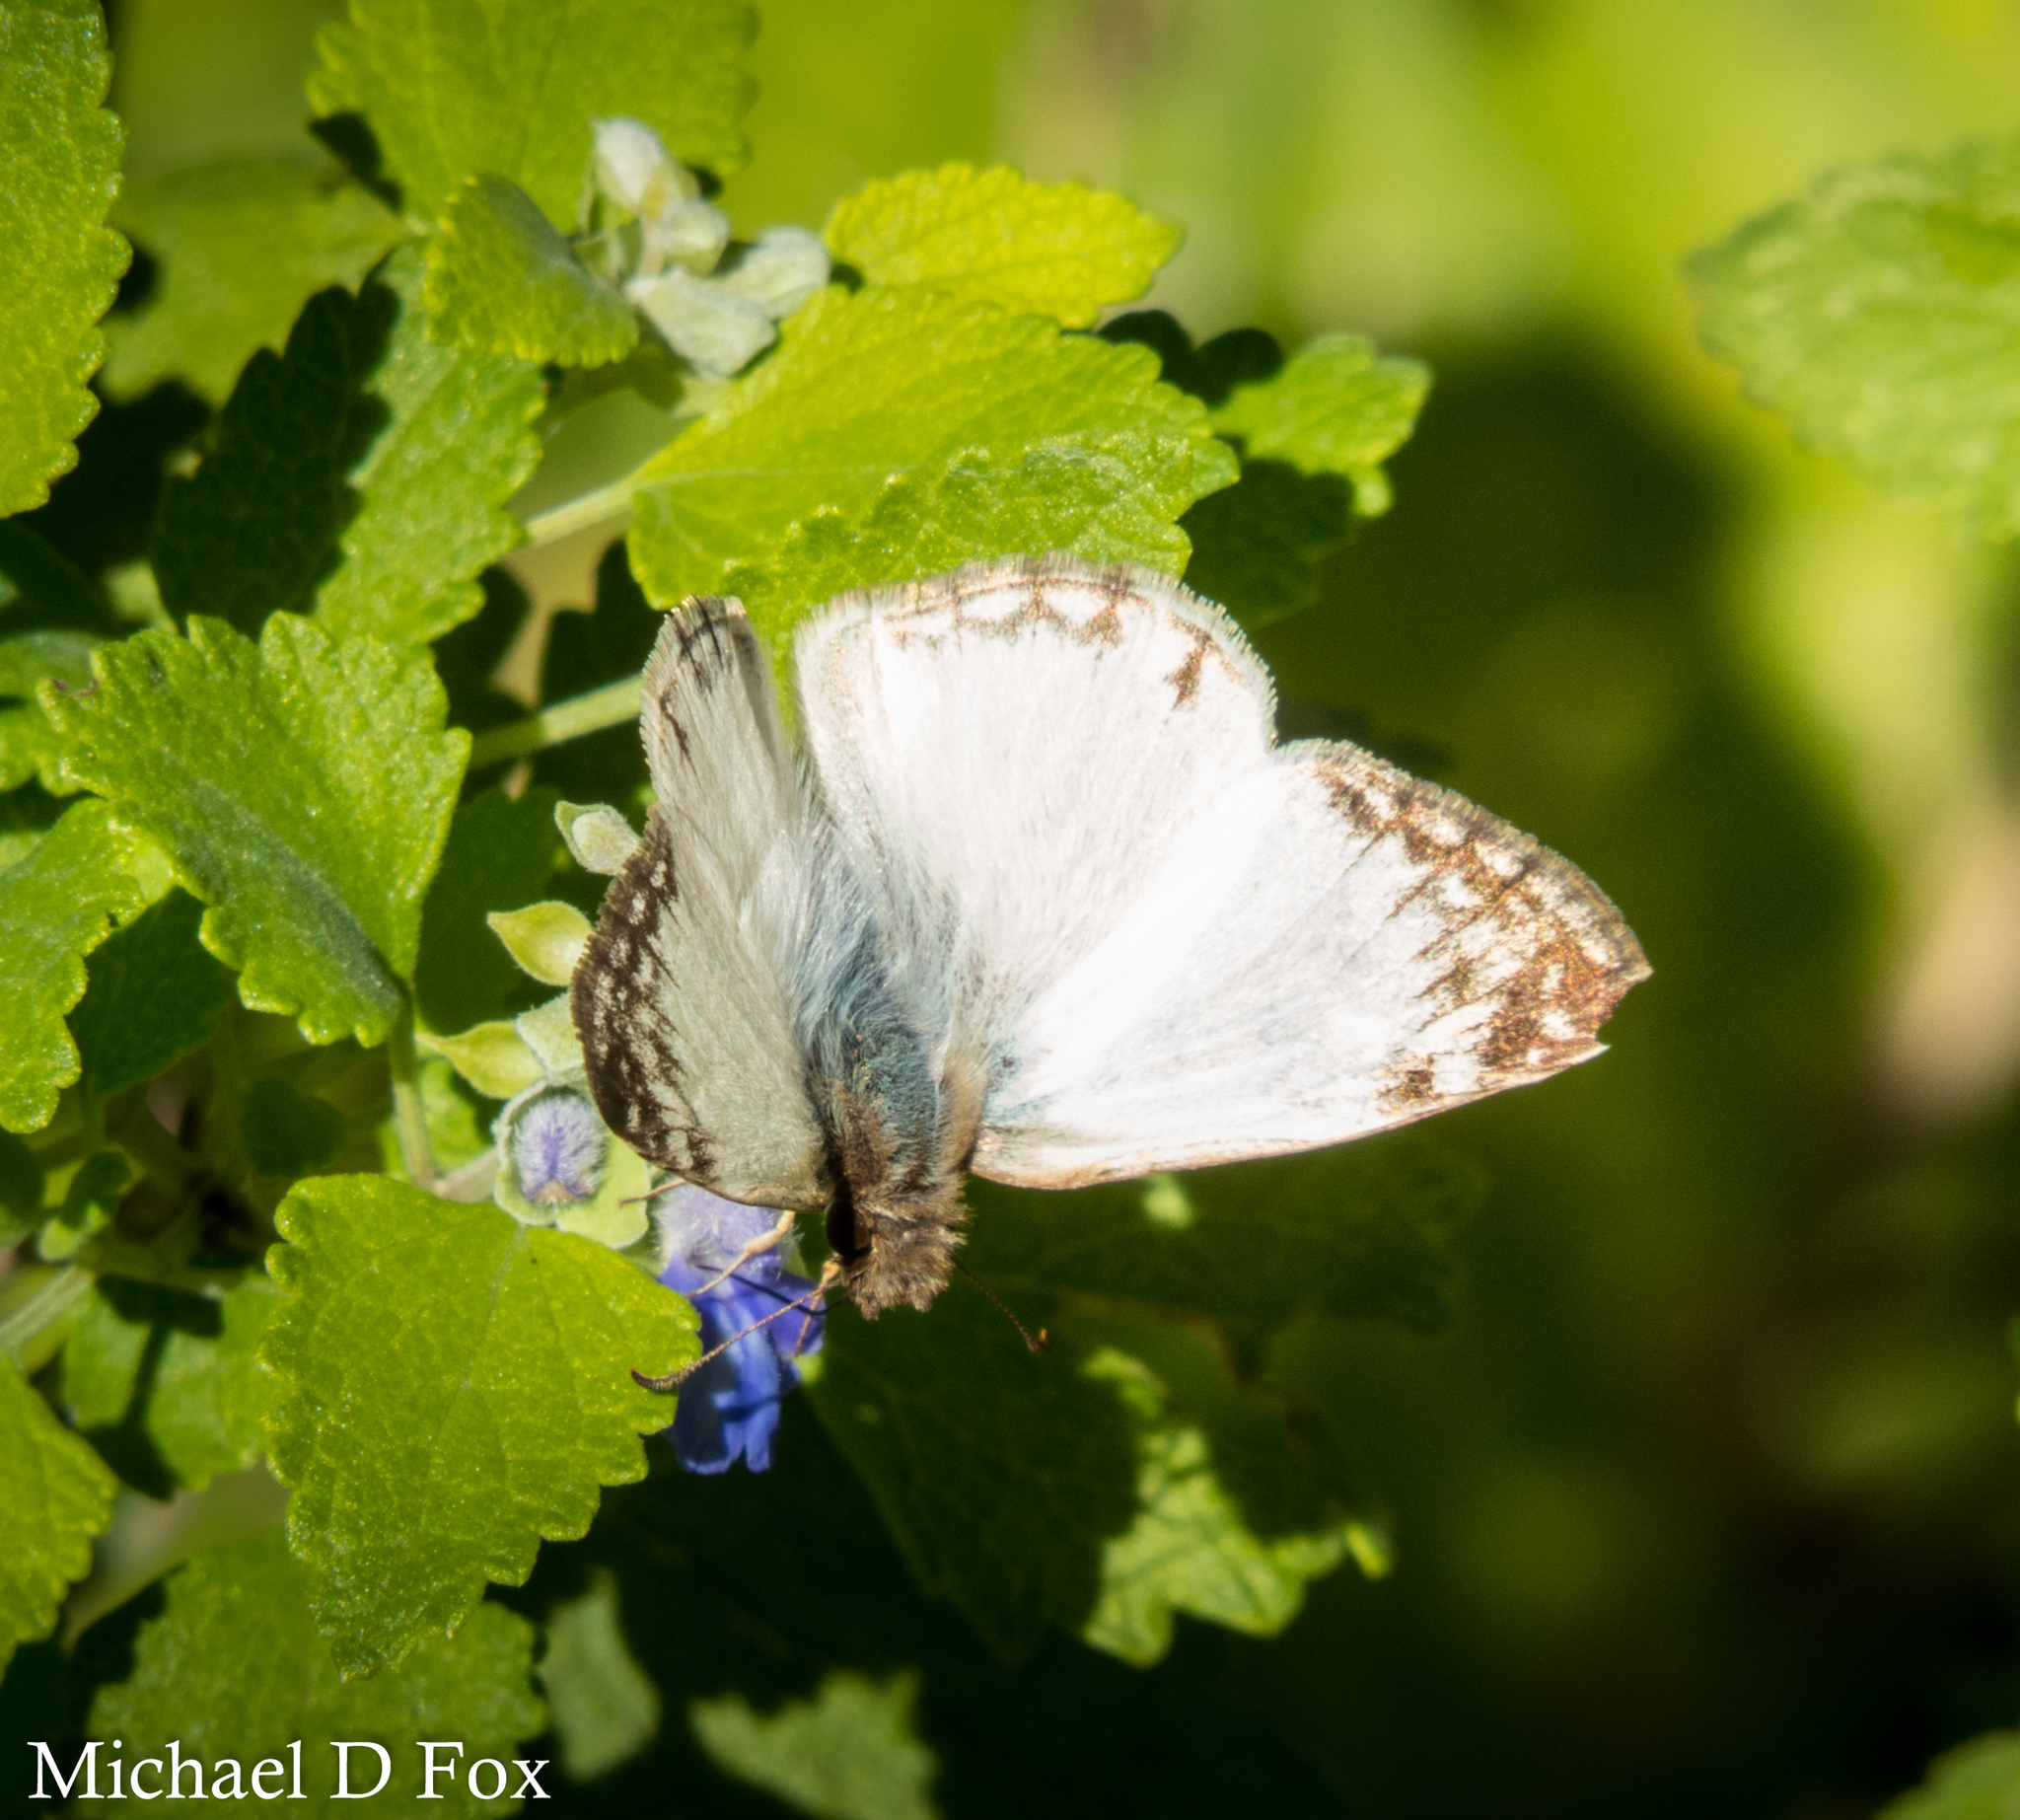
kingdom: Animalia
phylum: Arthropoda
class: Insecta
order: Lepidoptera
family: Hesperiidae
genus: Heliopetes
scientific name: Heliopetes laviana
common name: Laviana white-skipper
